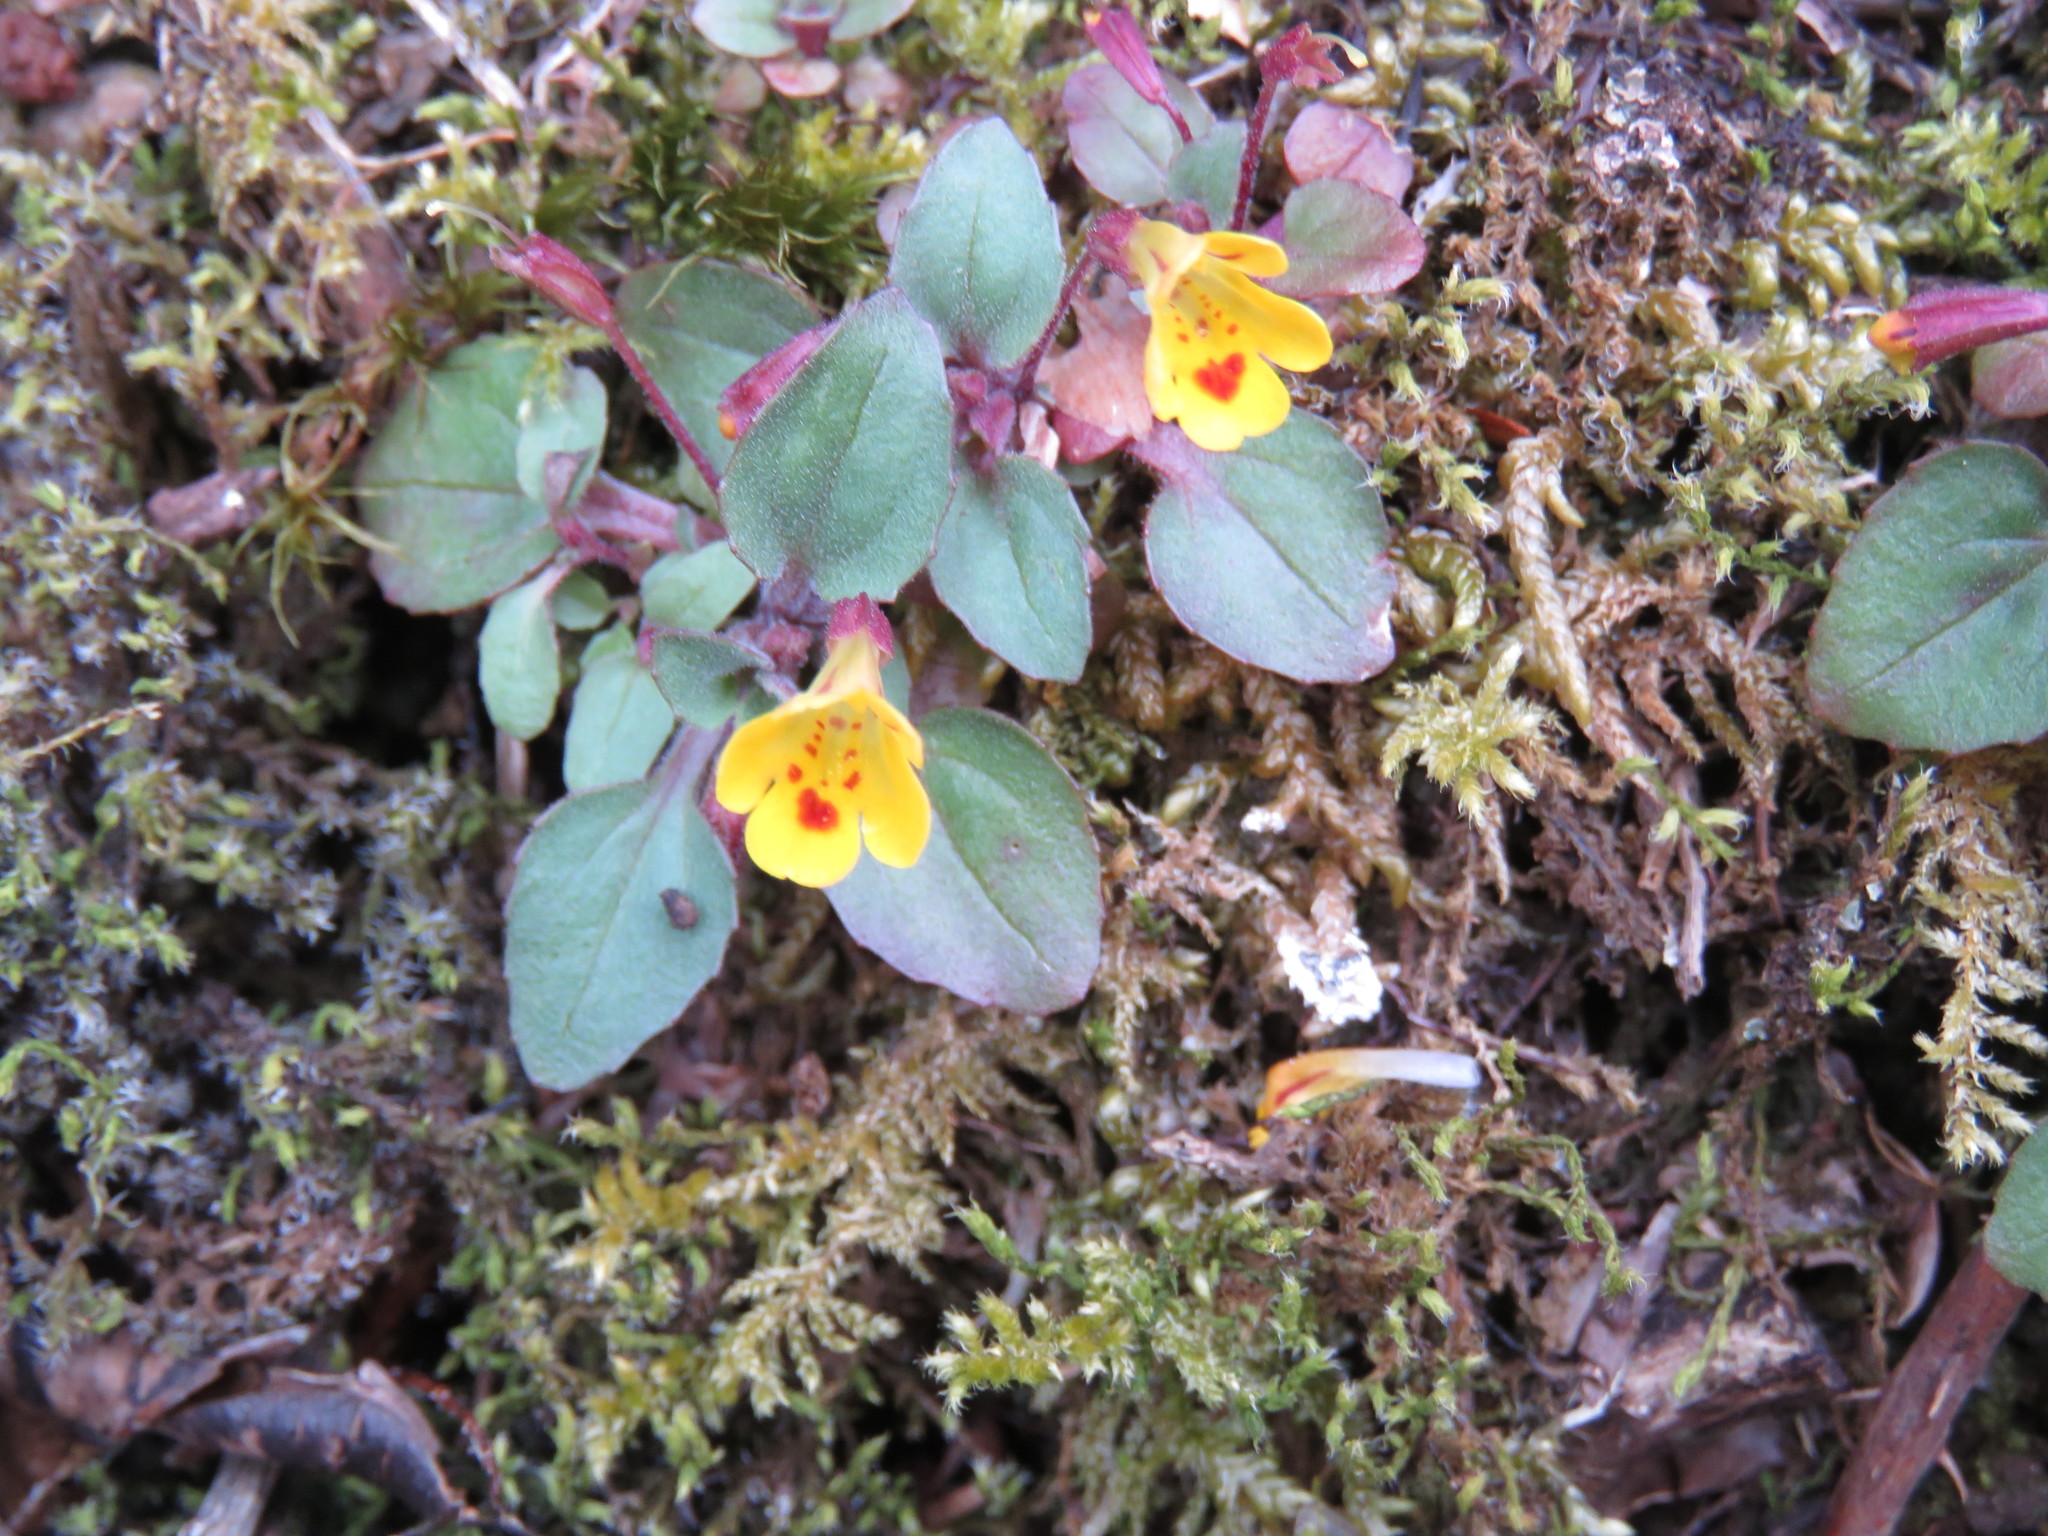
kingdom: Plantae
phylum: Tracheophyta
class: Magnoliopsida
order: Lamiales
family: Phrymaceae
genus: Erythranthe
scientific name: Erythranthe alsinoides
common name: Chickweed monkeyflower
